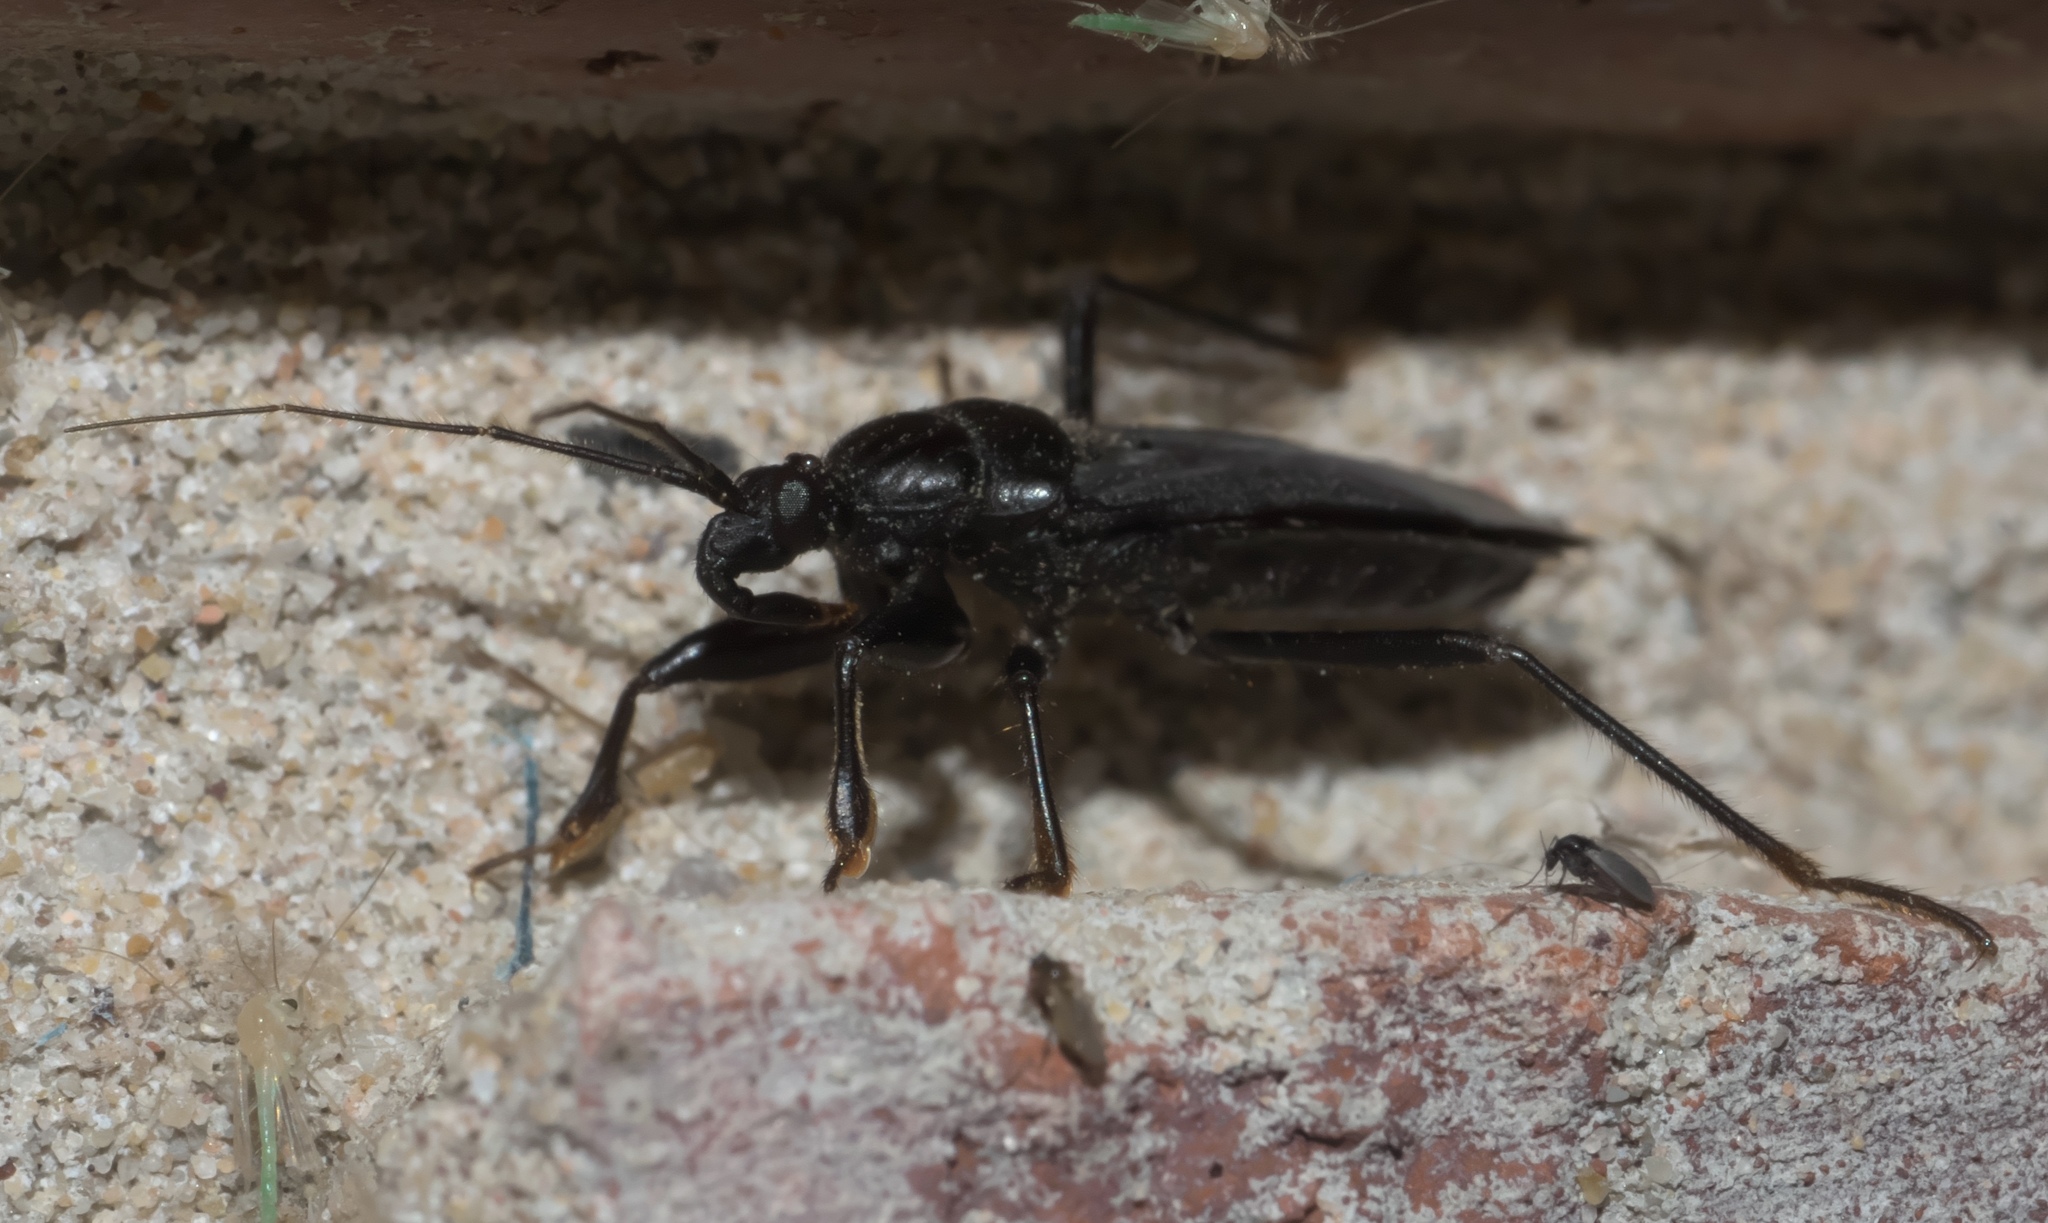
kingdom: Animalia
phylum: Arthropoda
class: Insecta
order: Hemiptera
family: Reduviidae
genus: Melanolestes
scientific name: Melanolestes picipes
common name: Assassin bug
